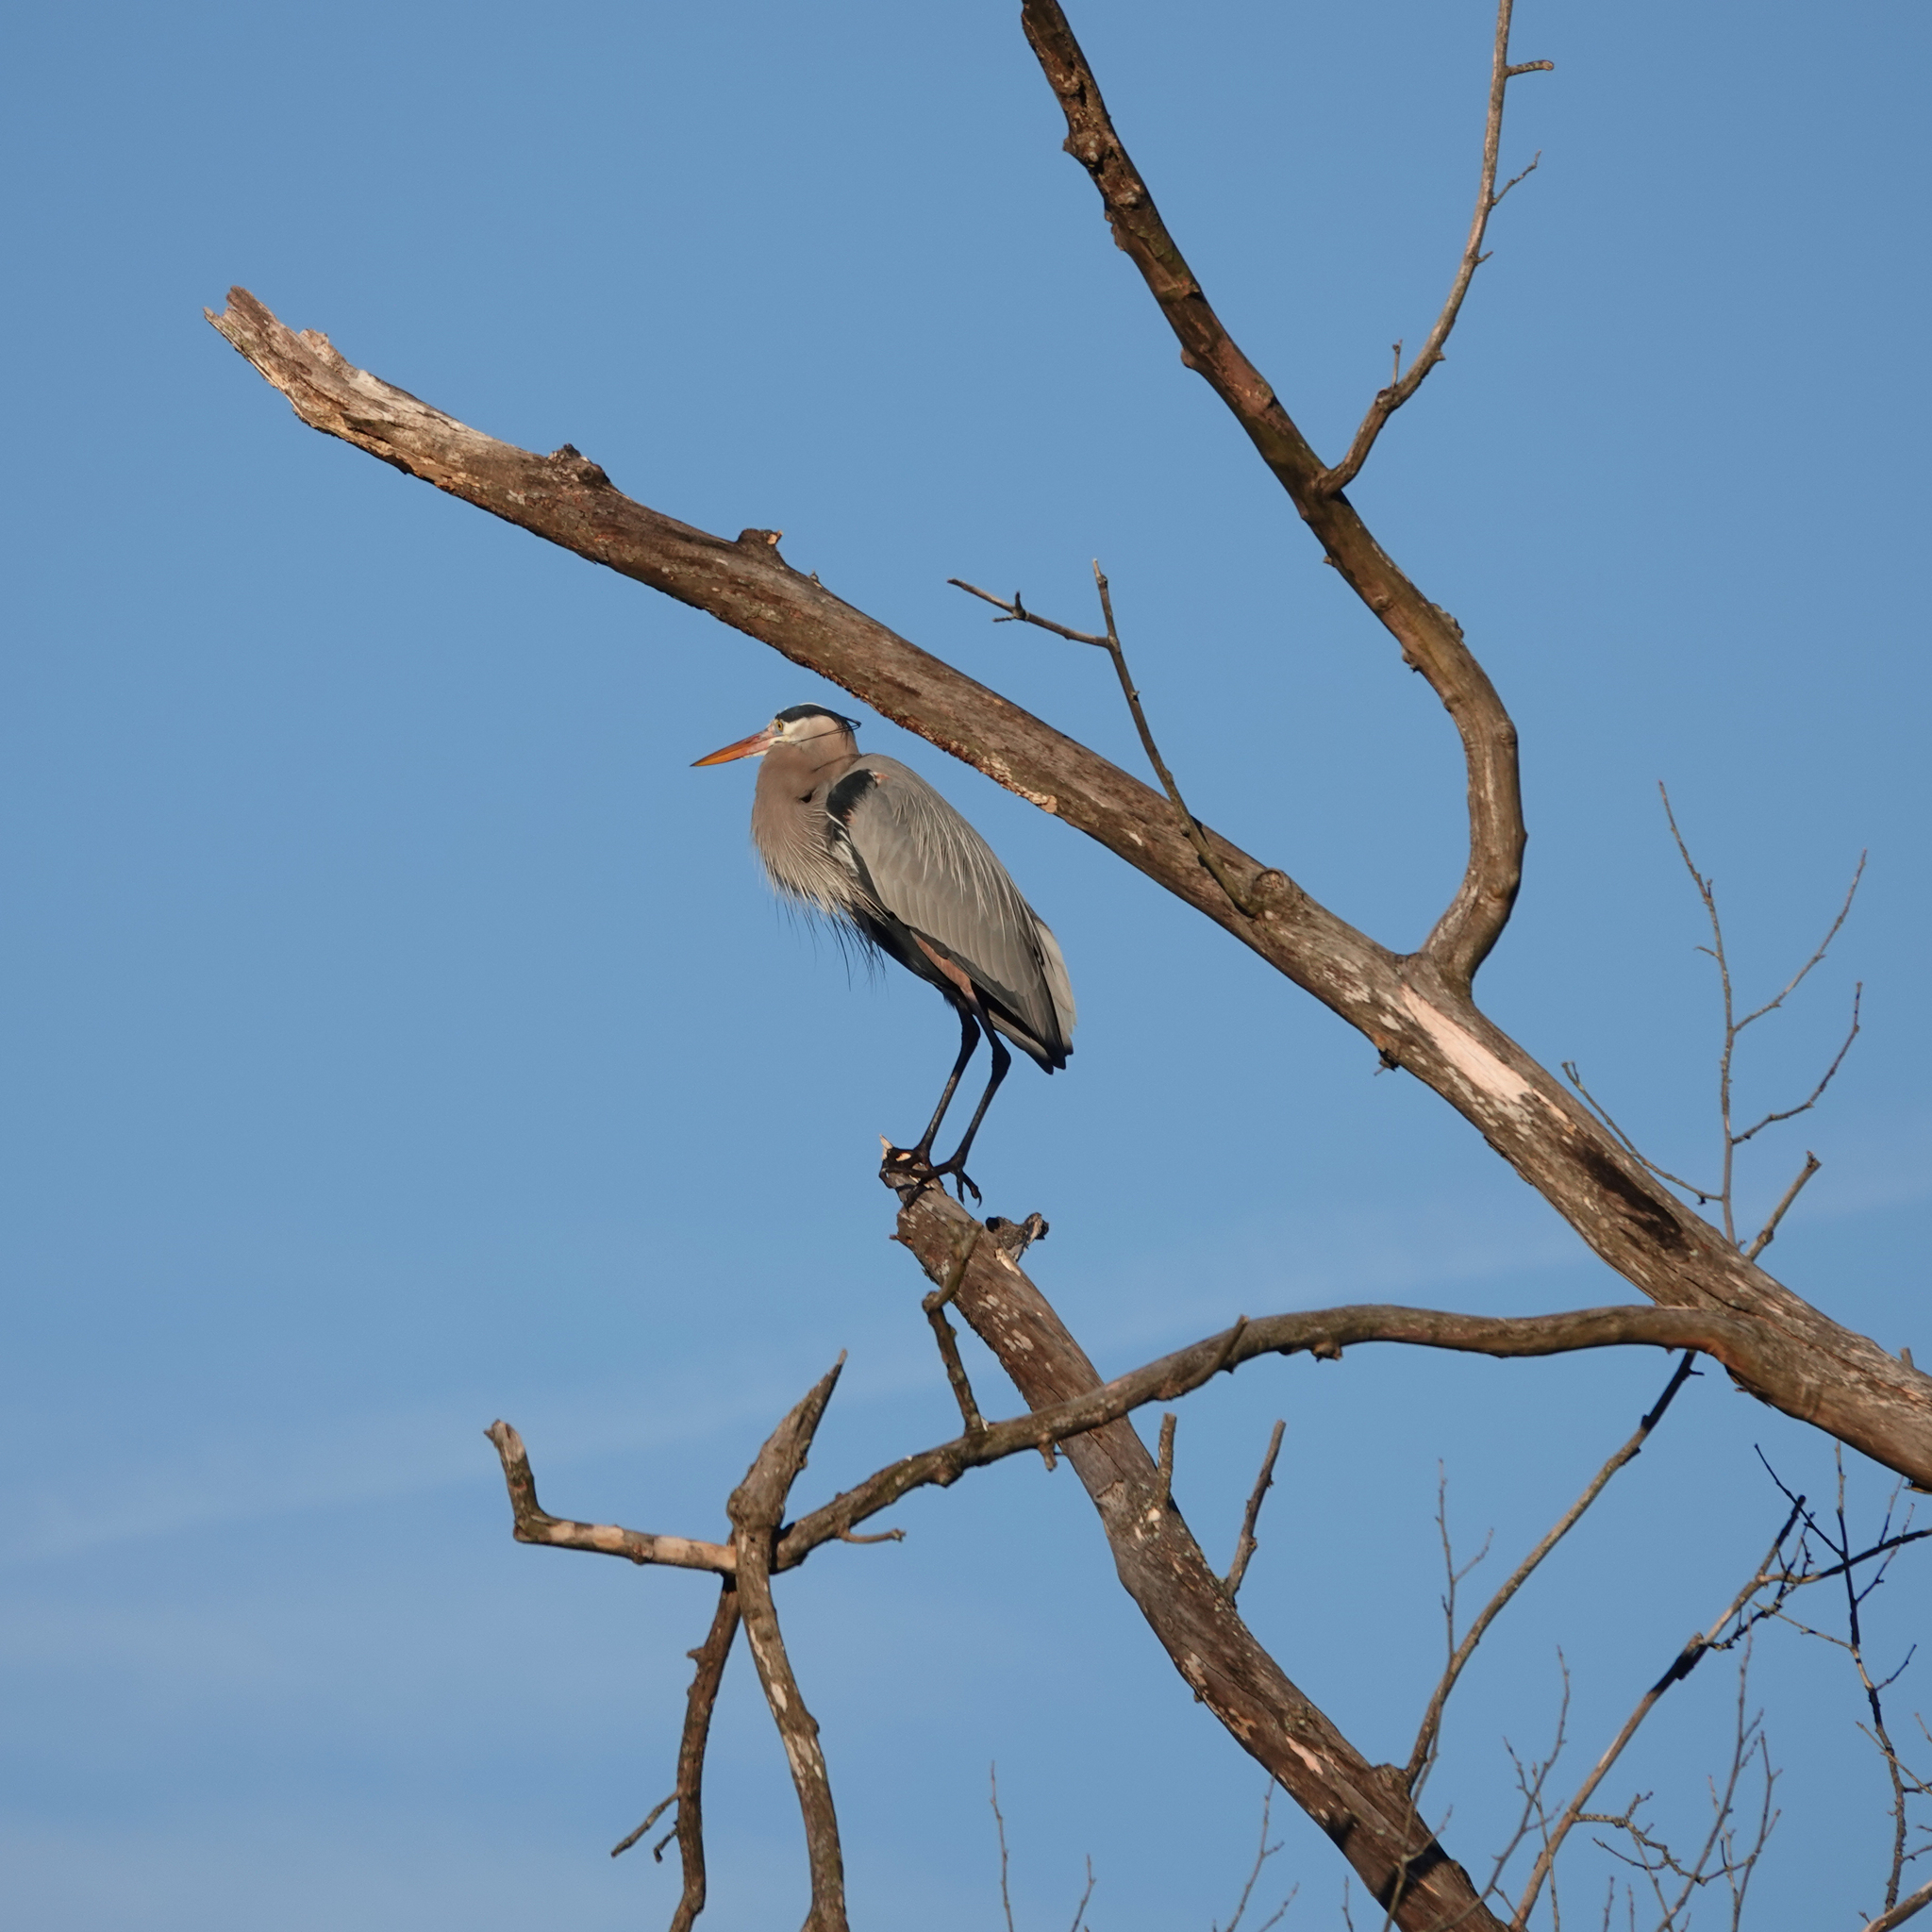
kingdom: Animalia
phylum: Chordata
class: Aves
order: Pelecaniformes
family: Ardeidae
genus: Ardea
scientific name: Ardea herodias
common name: Great blue heron
